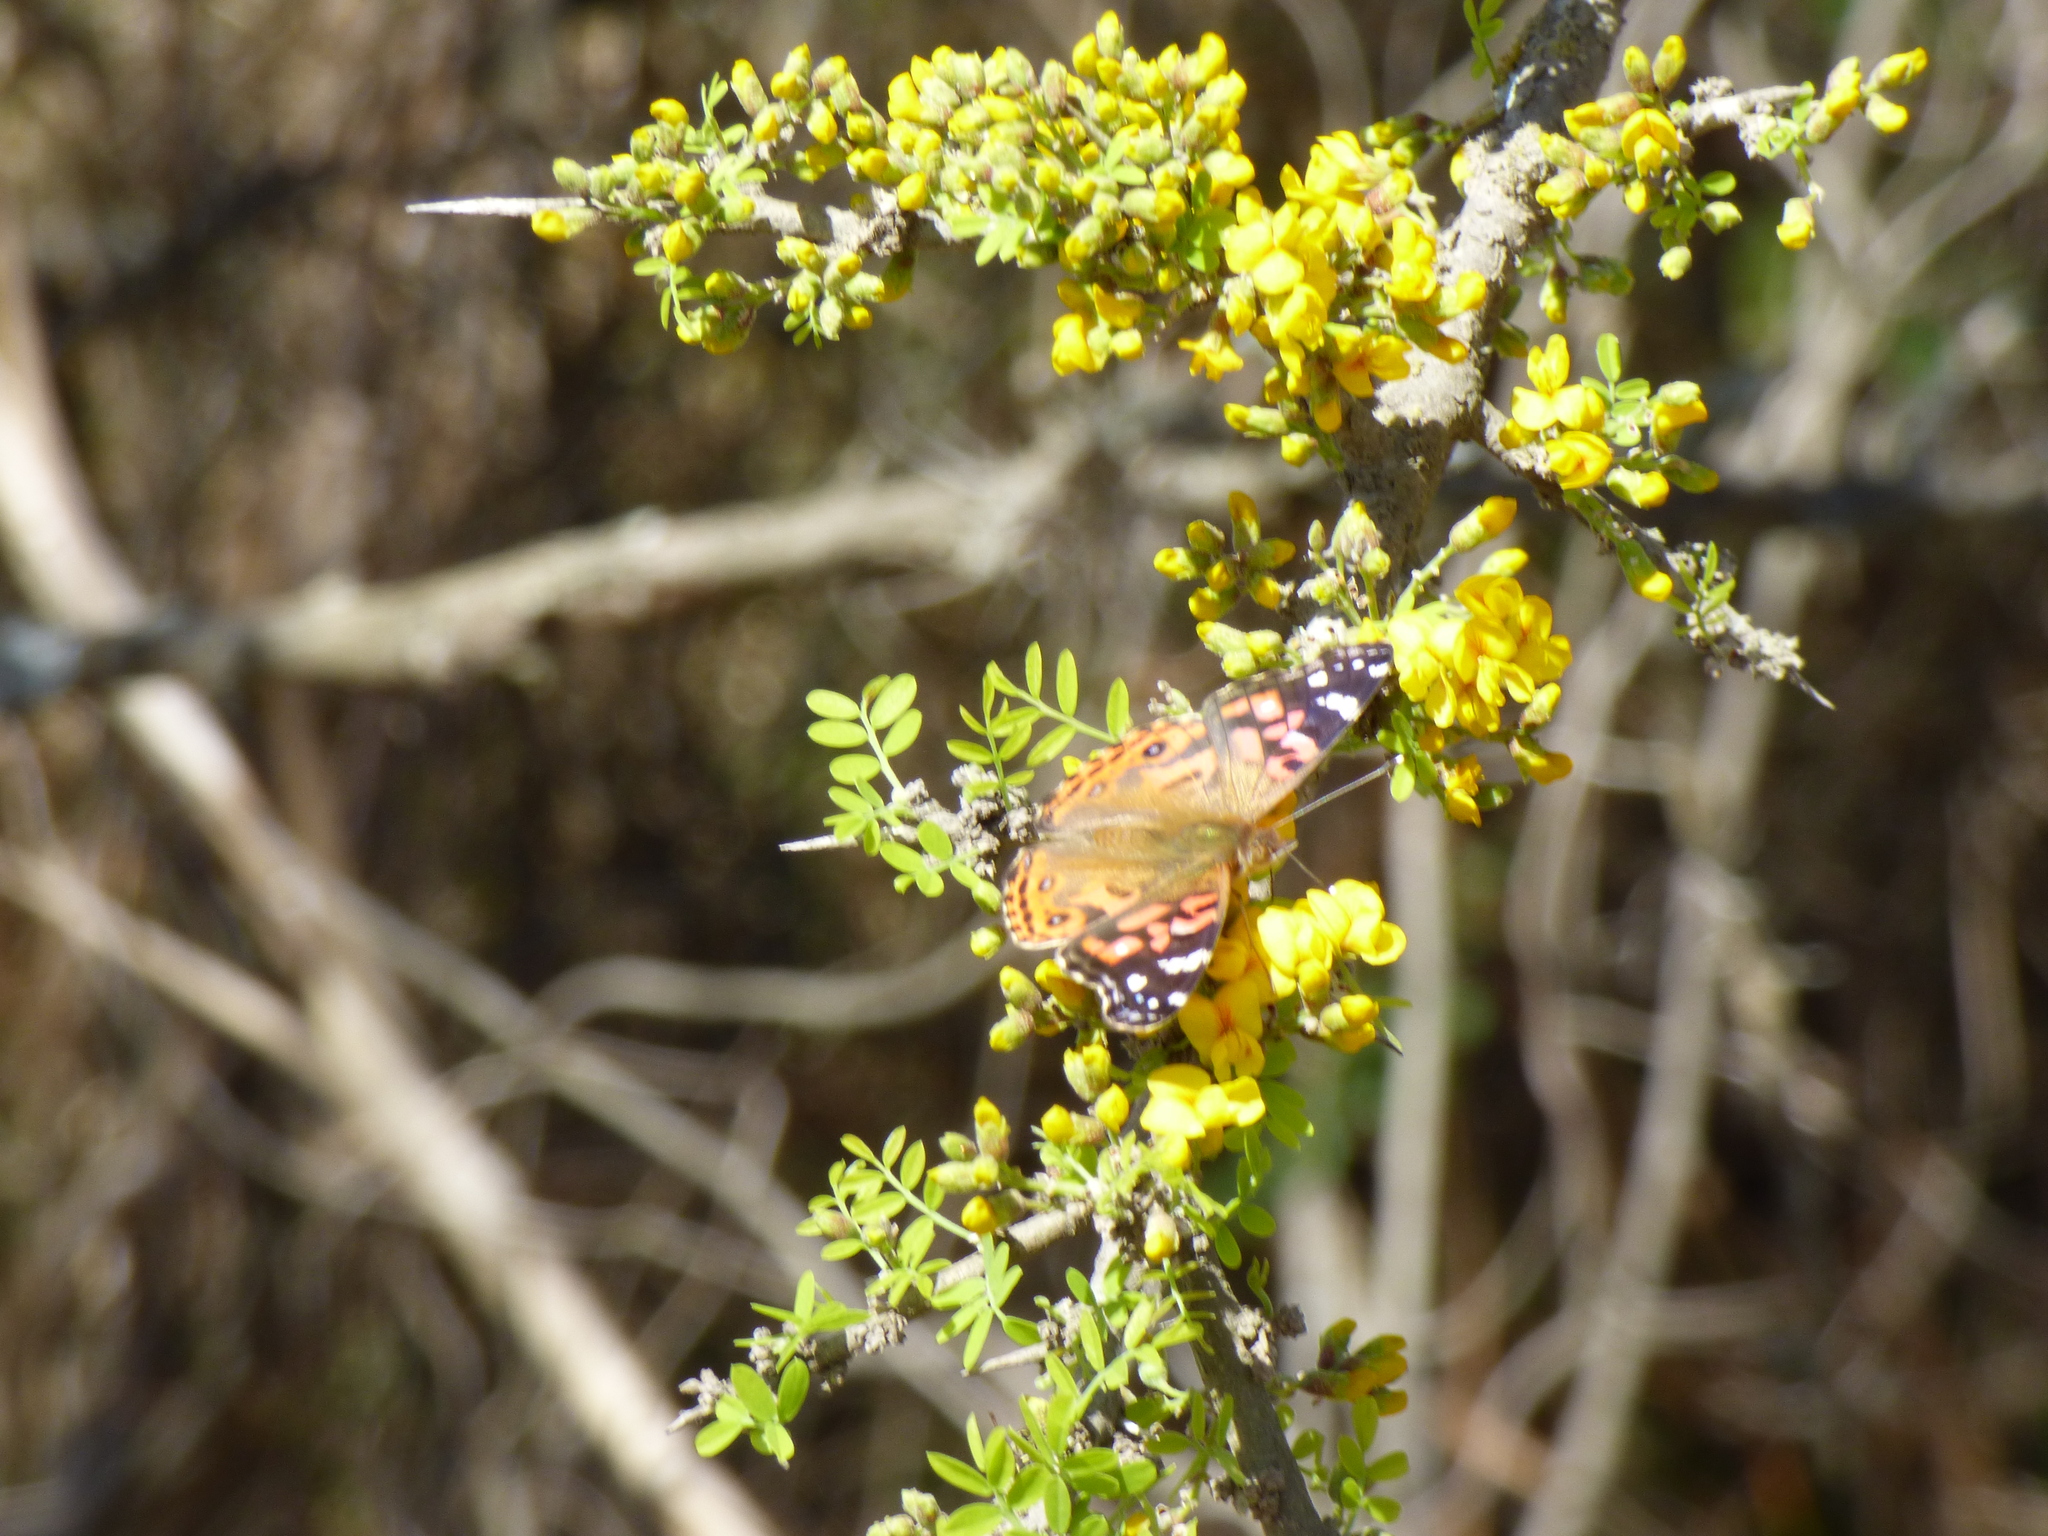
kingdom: Animalia
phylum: Arthropoda
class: Insecta
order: Lepidoptera
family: Nymphalidae
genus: Vanessa
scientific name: Vanessa braziliensis
